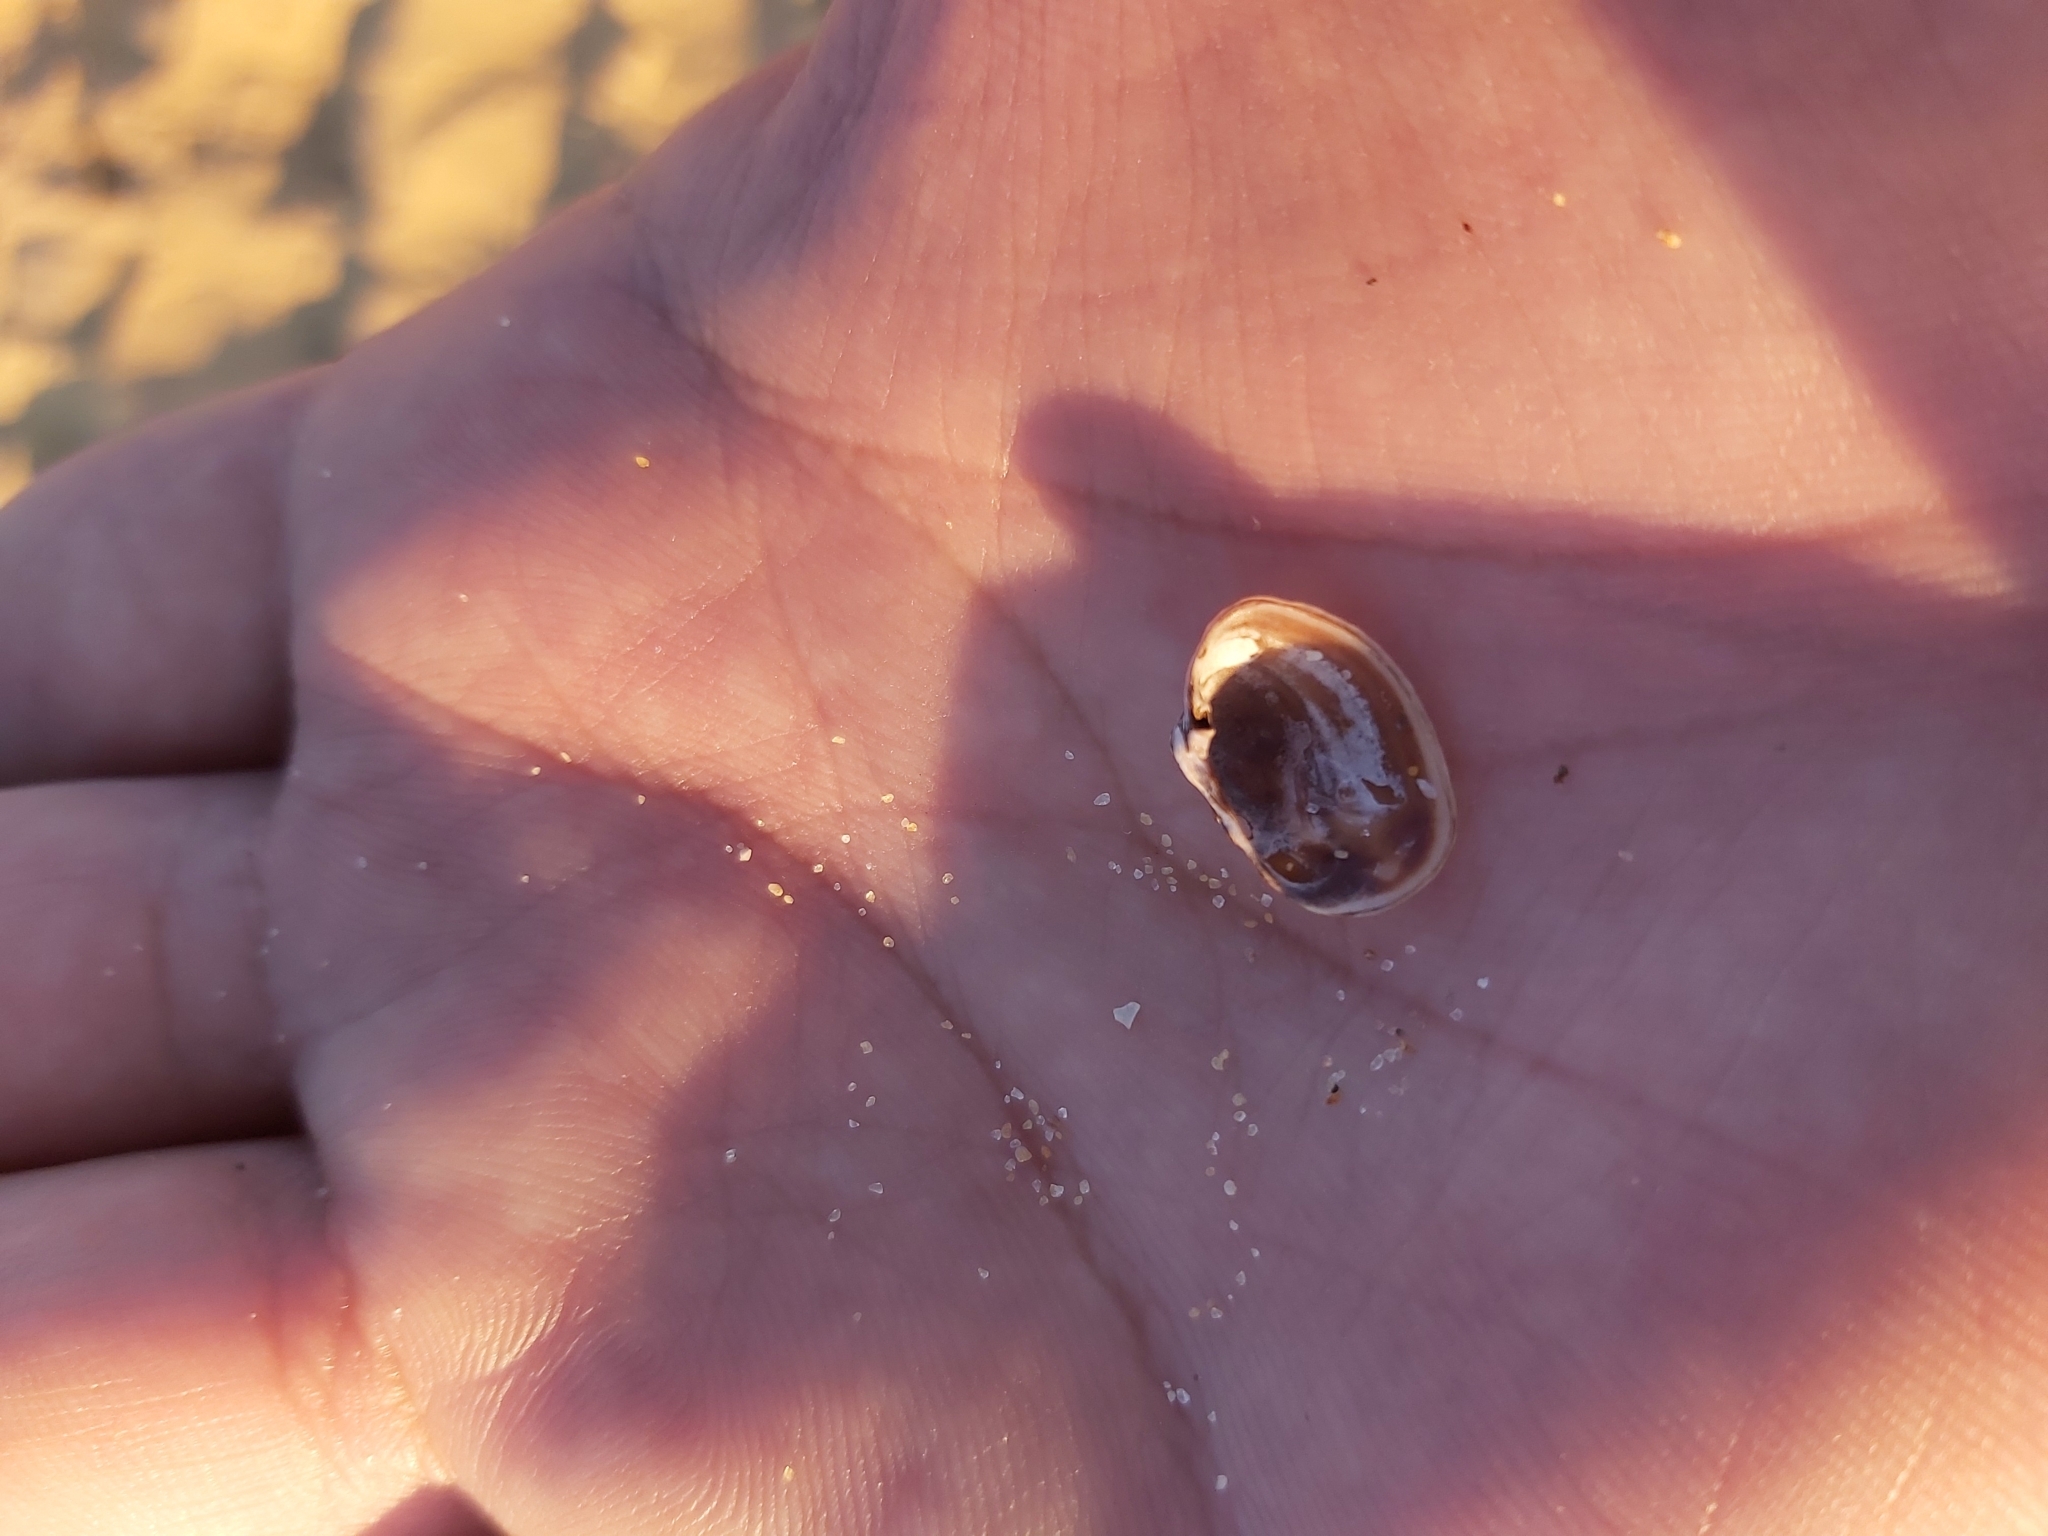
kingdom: Animalia
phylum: Mollusca
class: Bivalvia
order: Venerida
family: Veneridae
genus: Irus
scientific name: Irus cumingii
